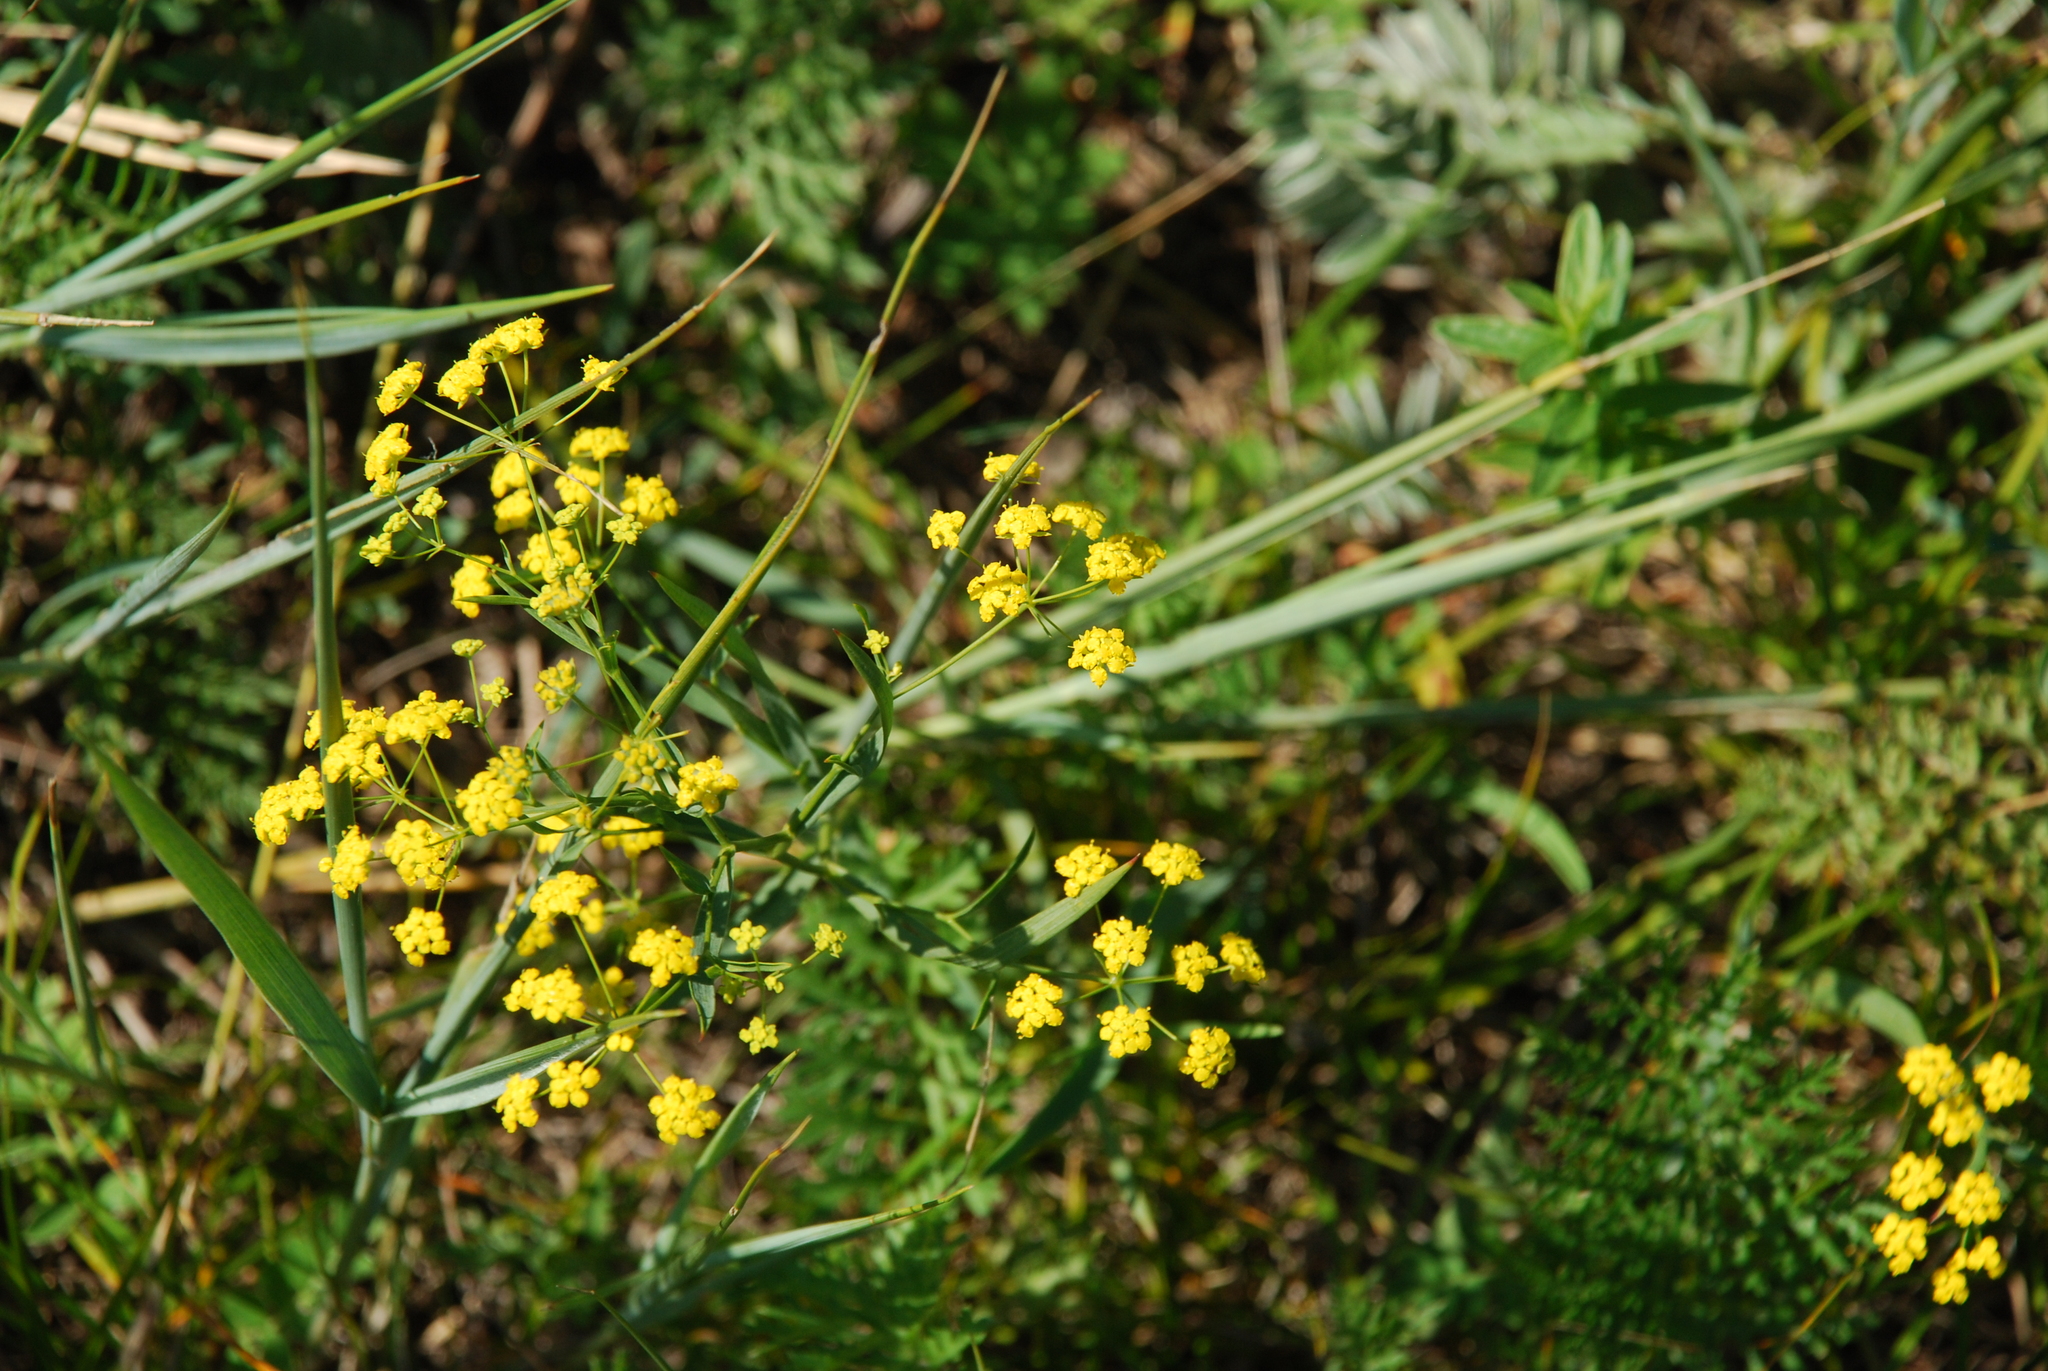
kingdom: Plantae
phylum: Tracheophyta
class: Magnoliopsida
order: Apiales
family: Apiaceae
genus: Bupleurum
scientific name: Bupleurum scorzonerifolium
